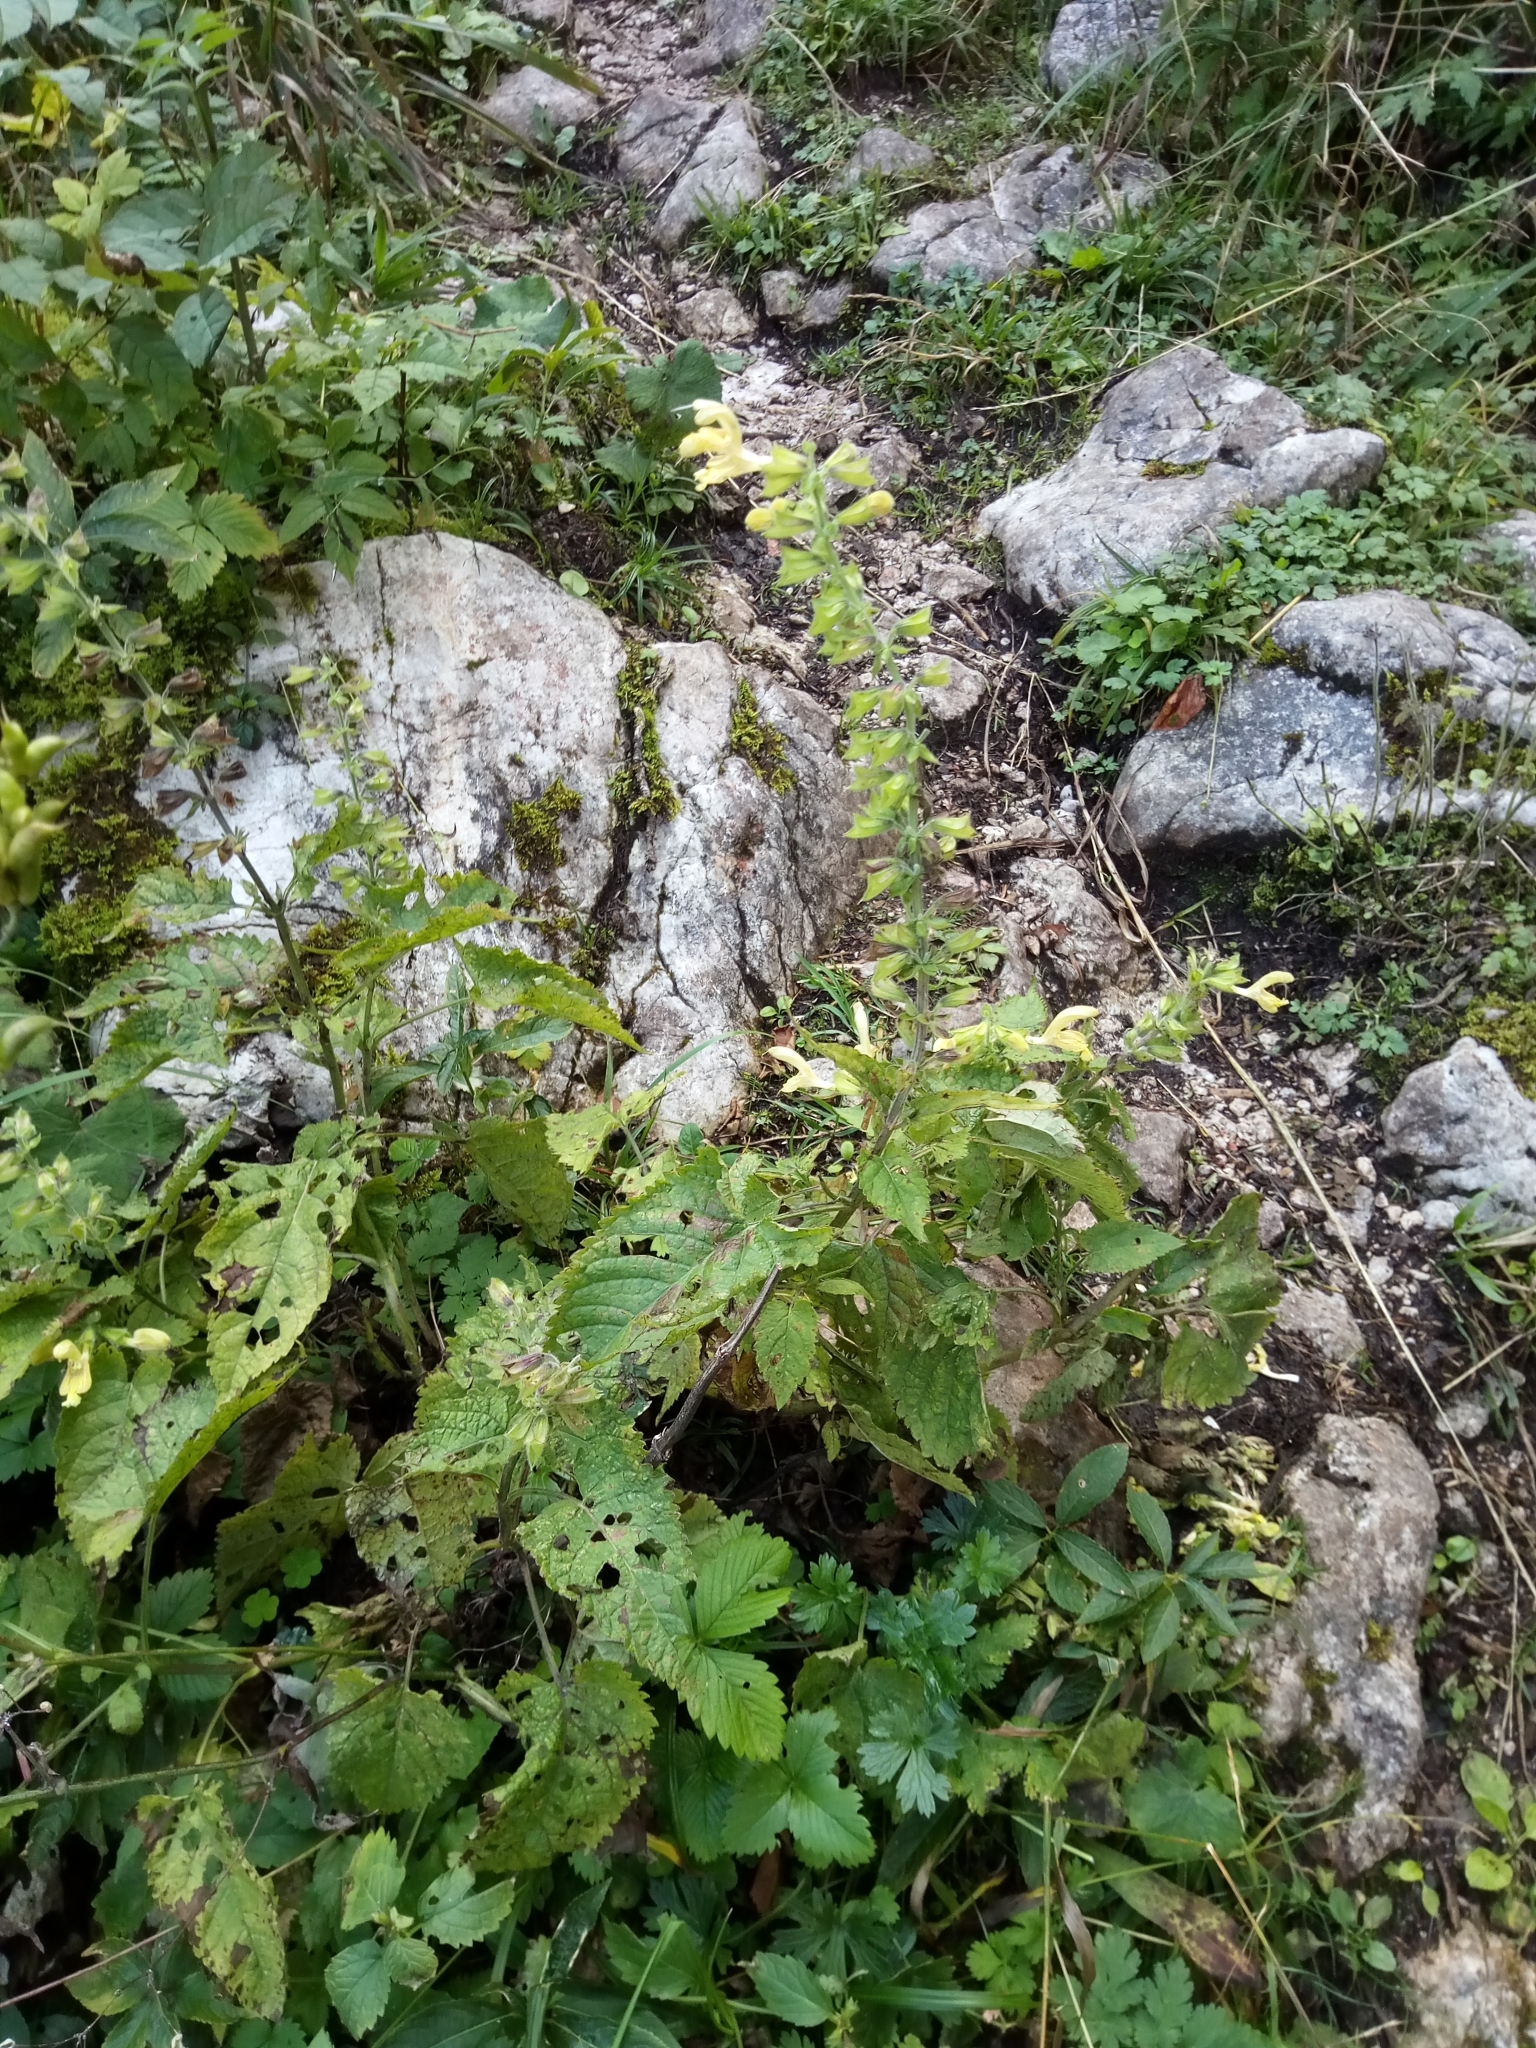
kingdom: Plantae
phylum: Tracheophyta
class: Magnoliopsida
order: Lamiales
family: Lamiaceae
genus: Salvia
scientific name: Salvia glutinosa
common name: Sticky clary
